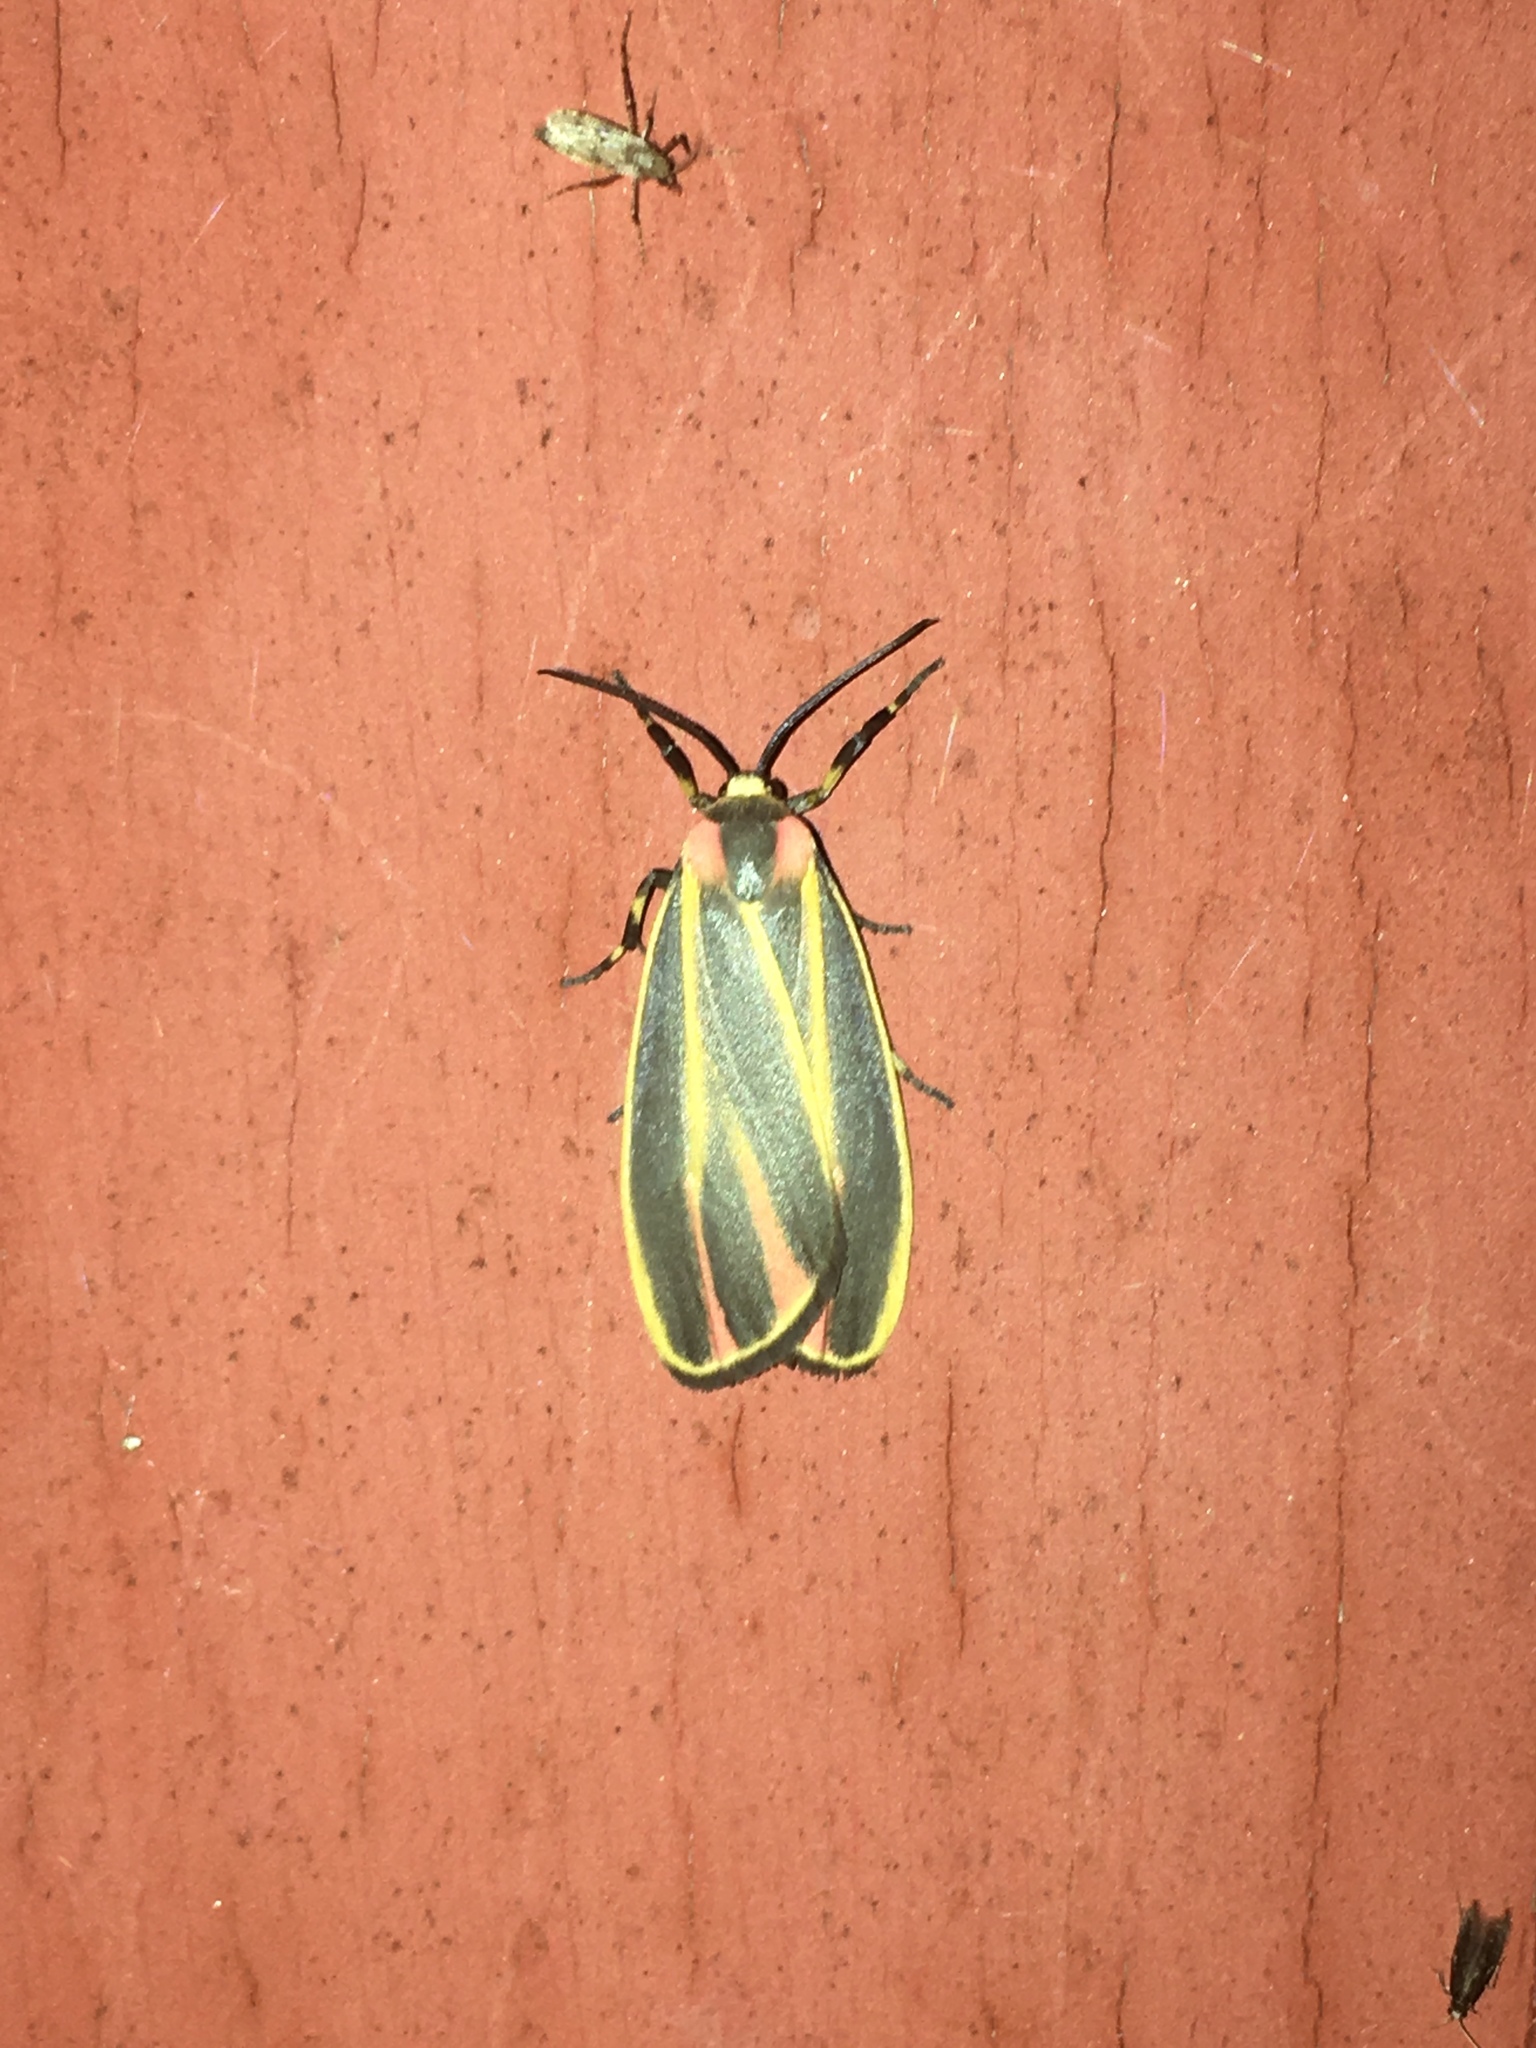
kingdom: Animalia
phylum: Arthropoda
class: Insecta
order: Lepidoptera
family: Erebidae
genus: Hypoprepia
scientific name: Hypoprepia fucosa
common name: Painted lichen moth
